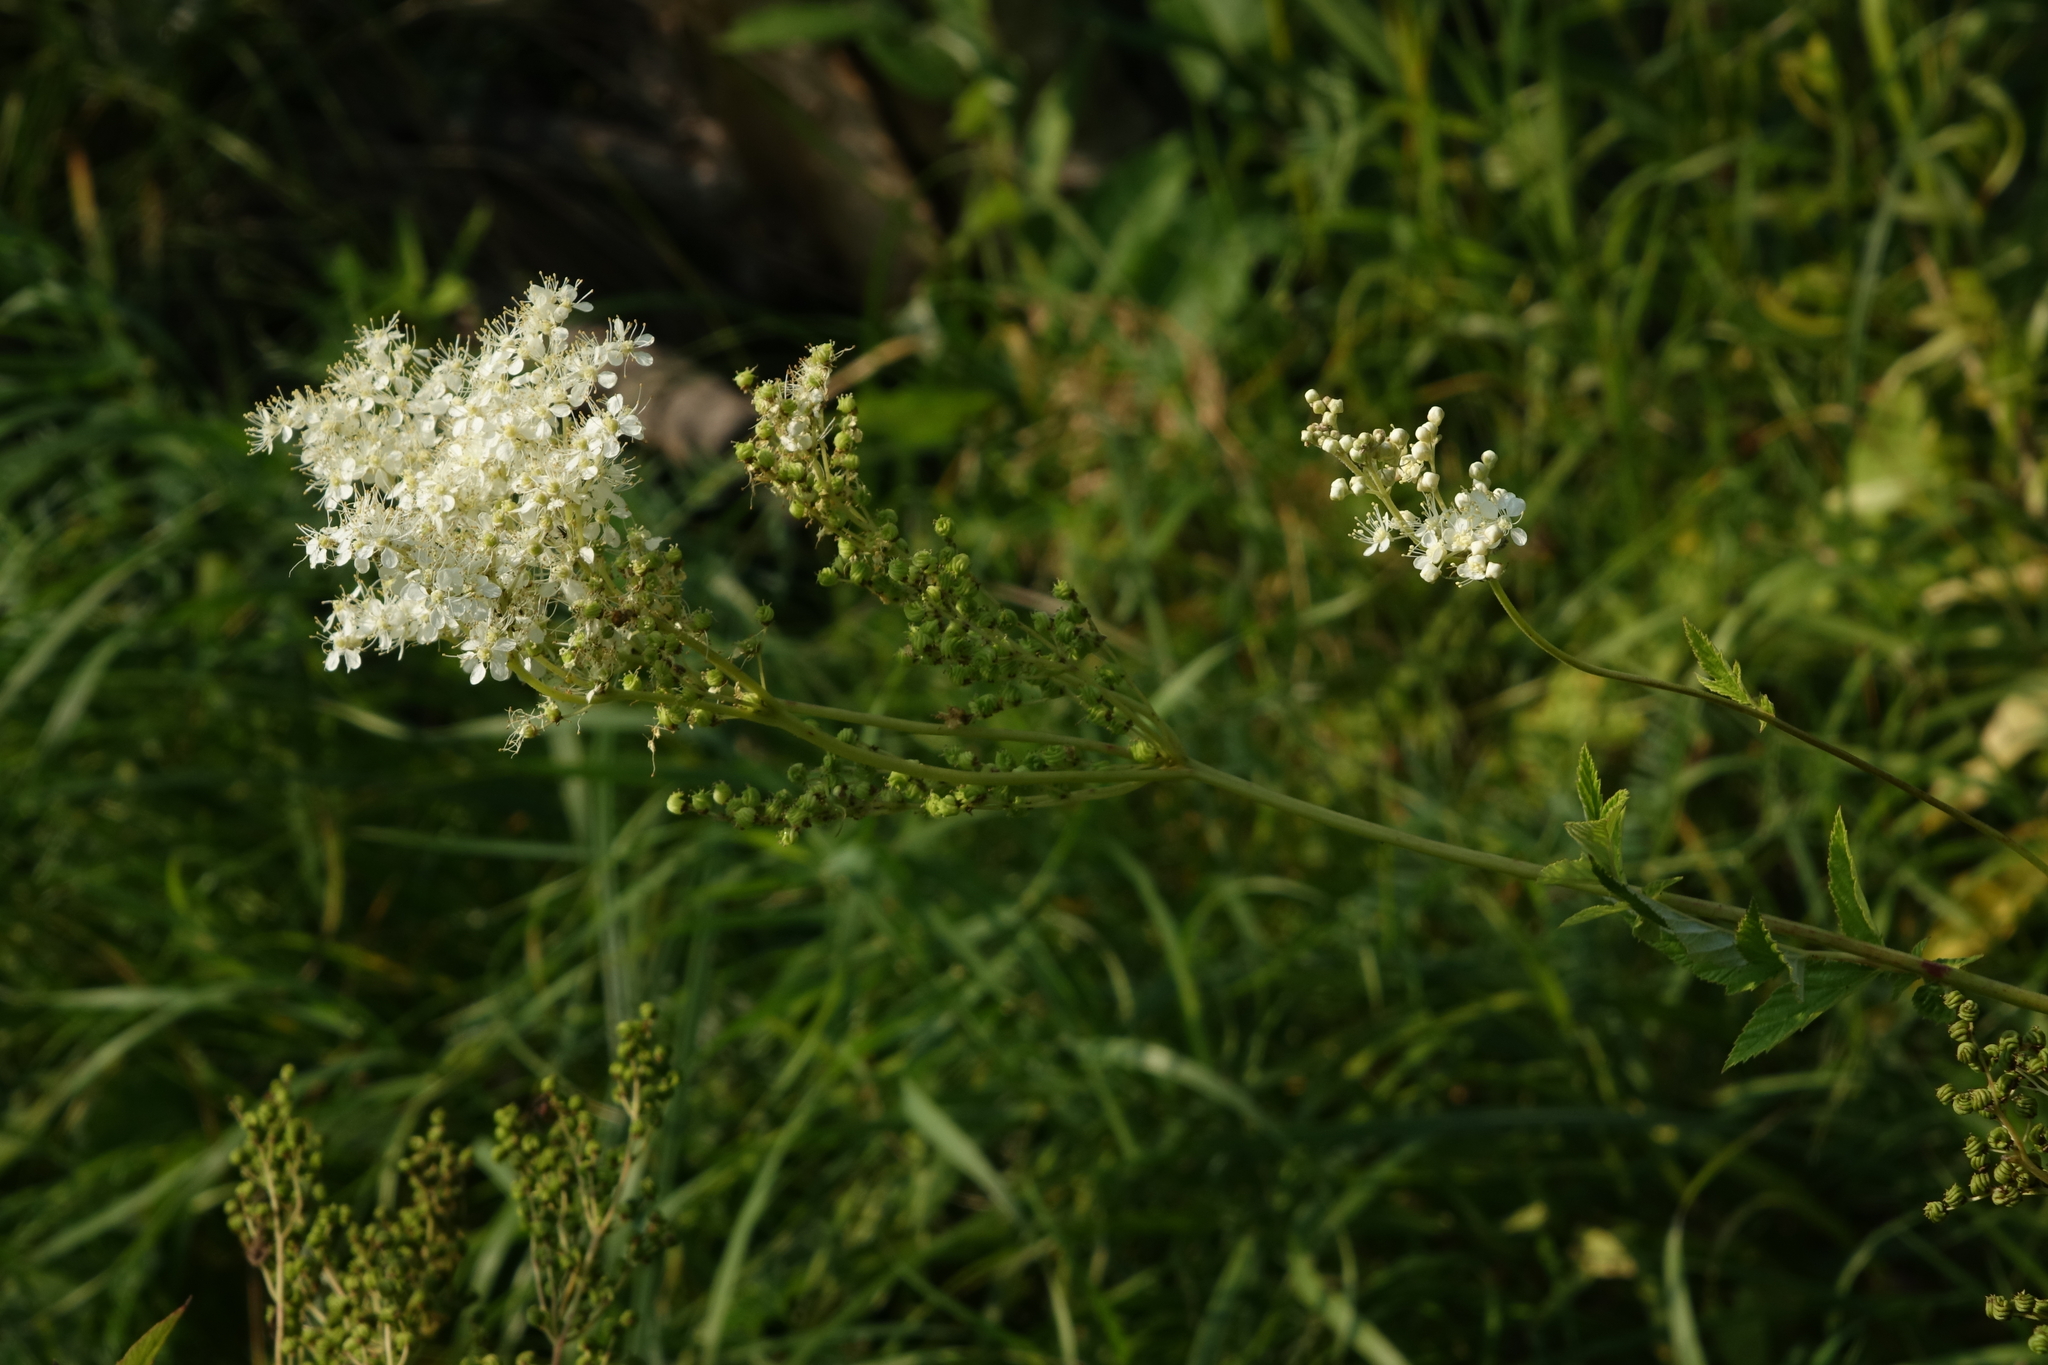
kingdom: Plantae
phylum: Tracheophyta
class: Magnoliopsida
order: Rosales
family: Rosaceae
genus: Filipendula
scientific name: Filipendula ulmaria
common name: Meadowsweet
